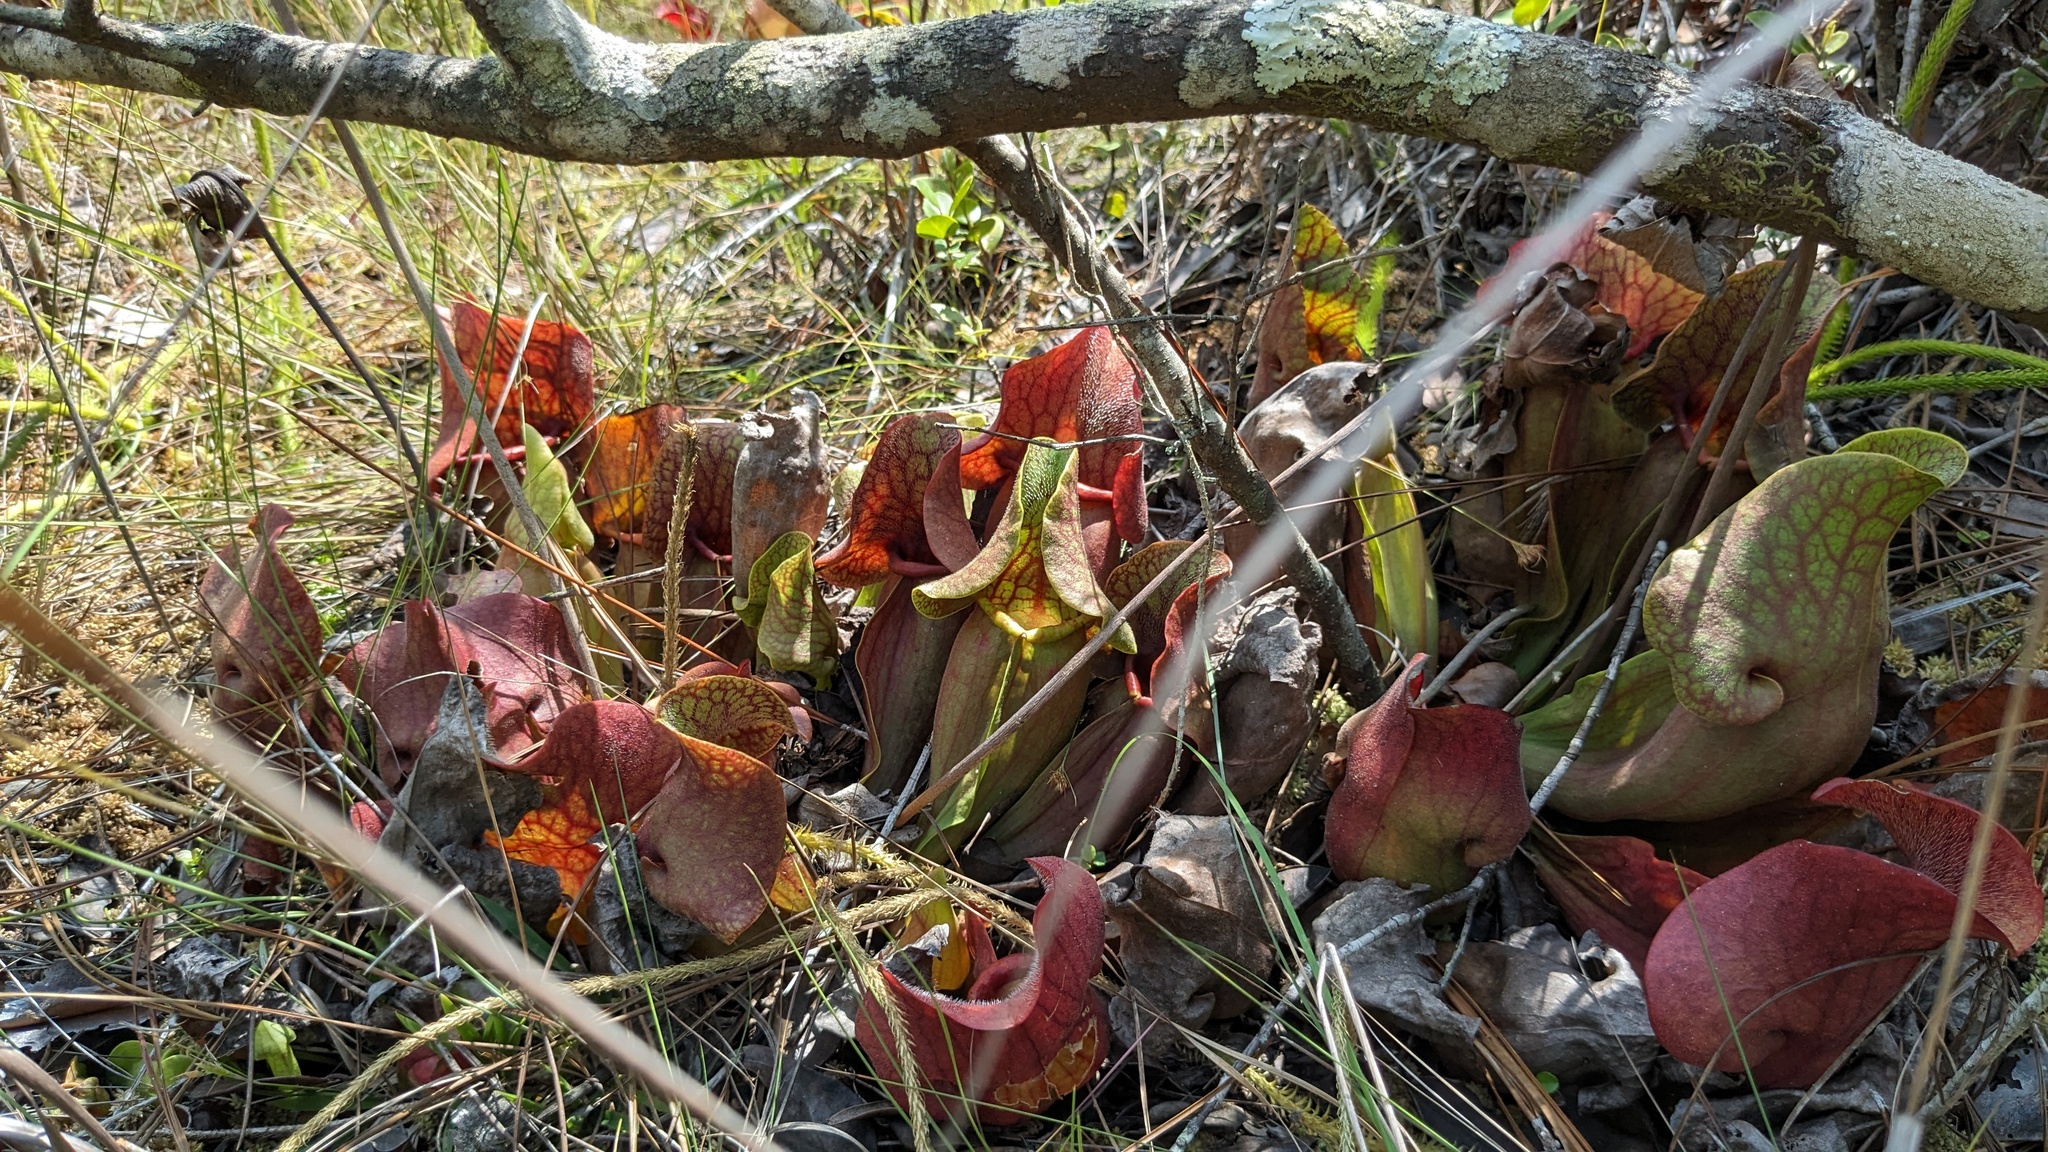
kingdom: Plantae
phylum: Tracheophyta
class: Magnoliopsida
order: Ericales
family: Sarraceniaceae
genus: Sarracenia
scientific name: Sarracenia rosea
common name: Pink pitcherplant
